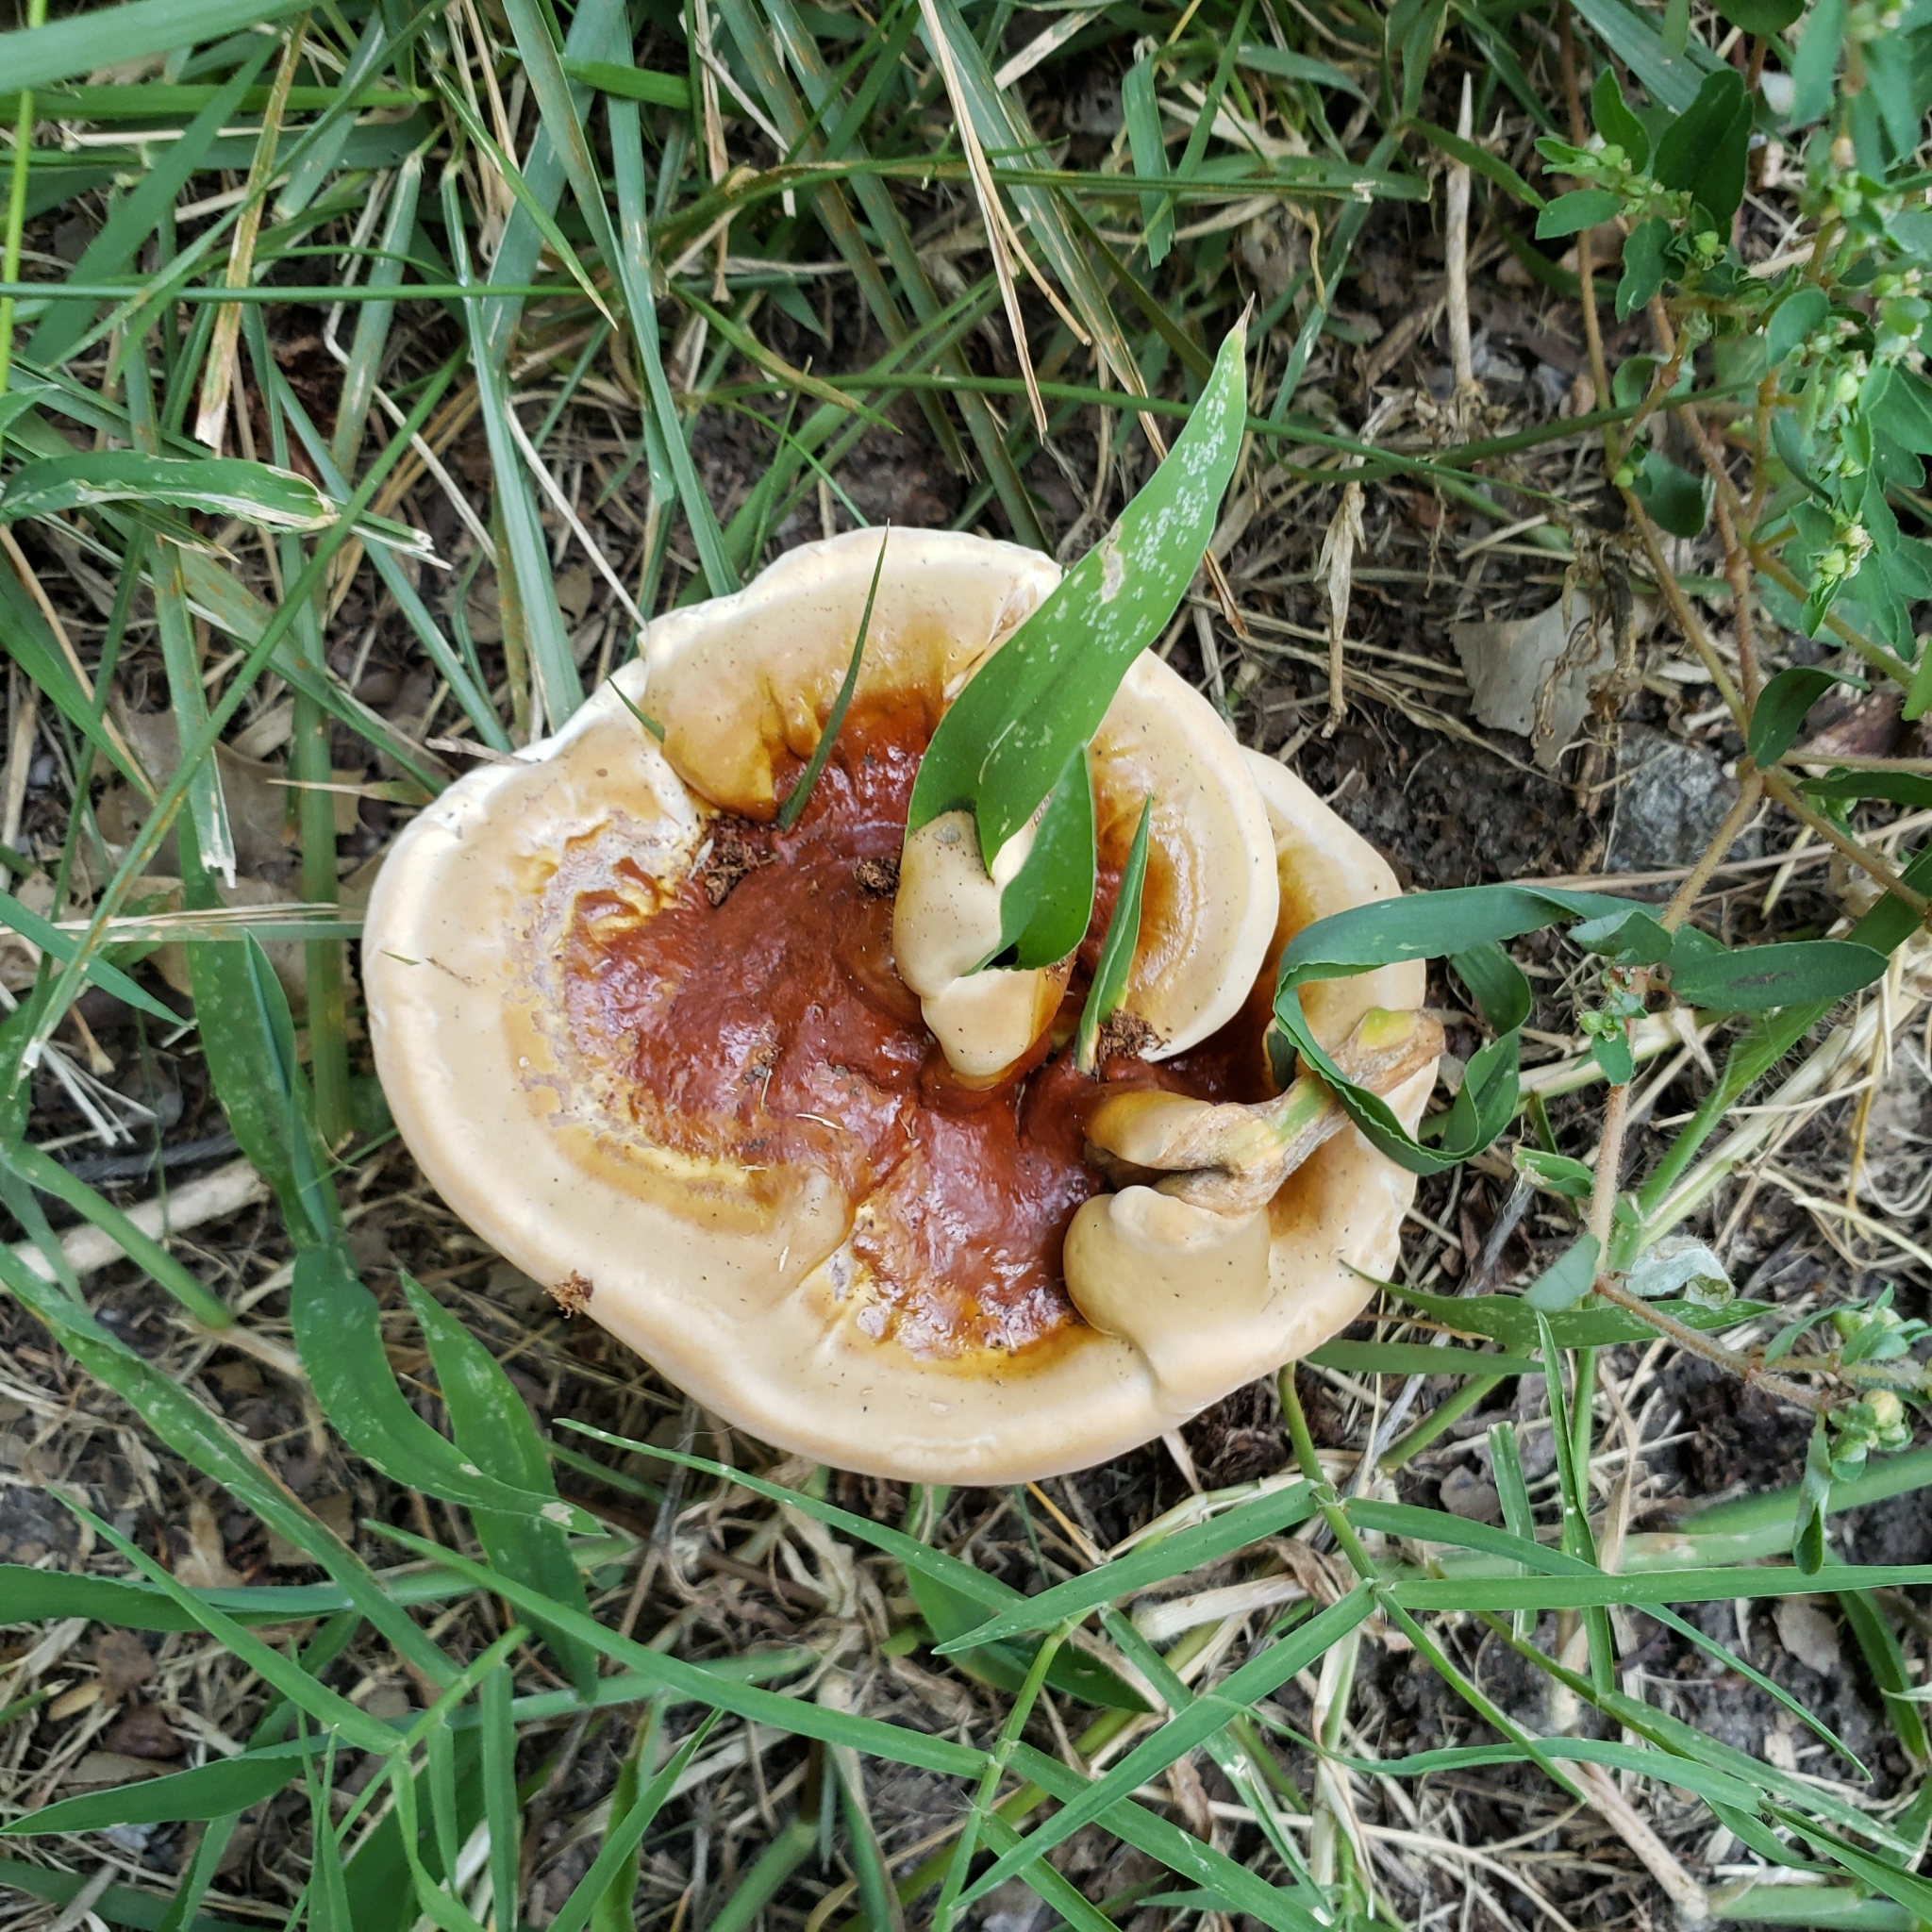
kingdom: Fungi
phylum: Basidiomycota
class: Agaricomycetes
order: Polyporales
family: Polyporaceae
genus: Ganoderma
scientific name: Ganoderma resinaceum
